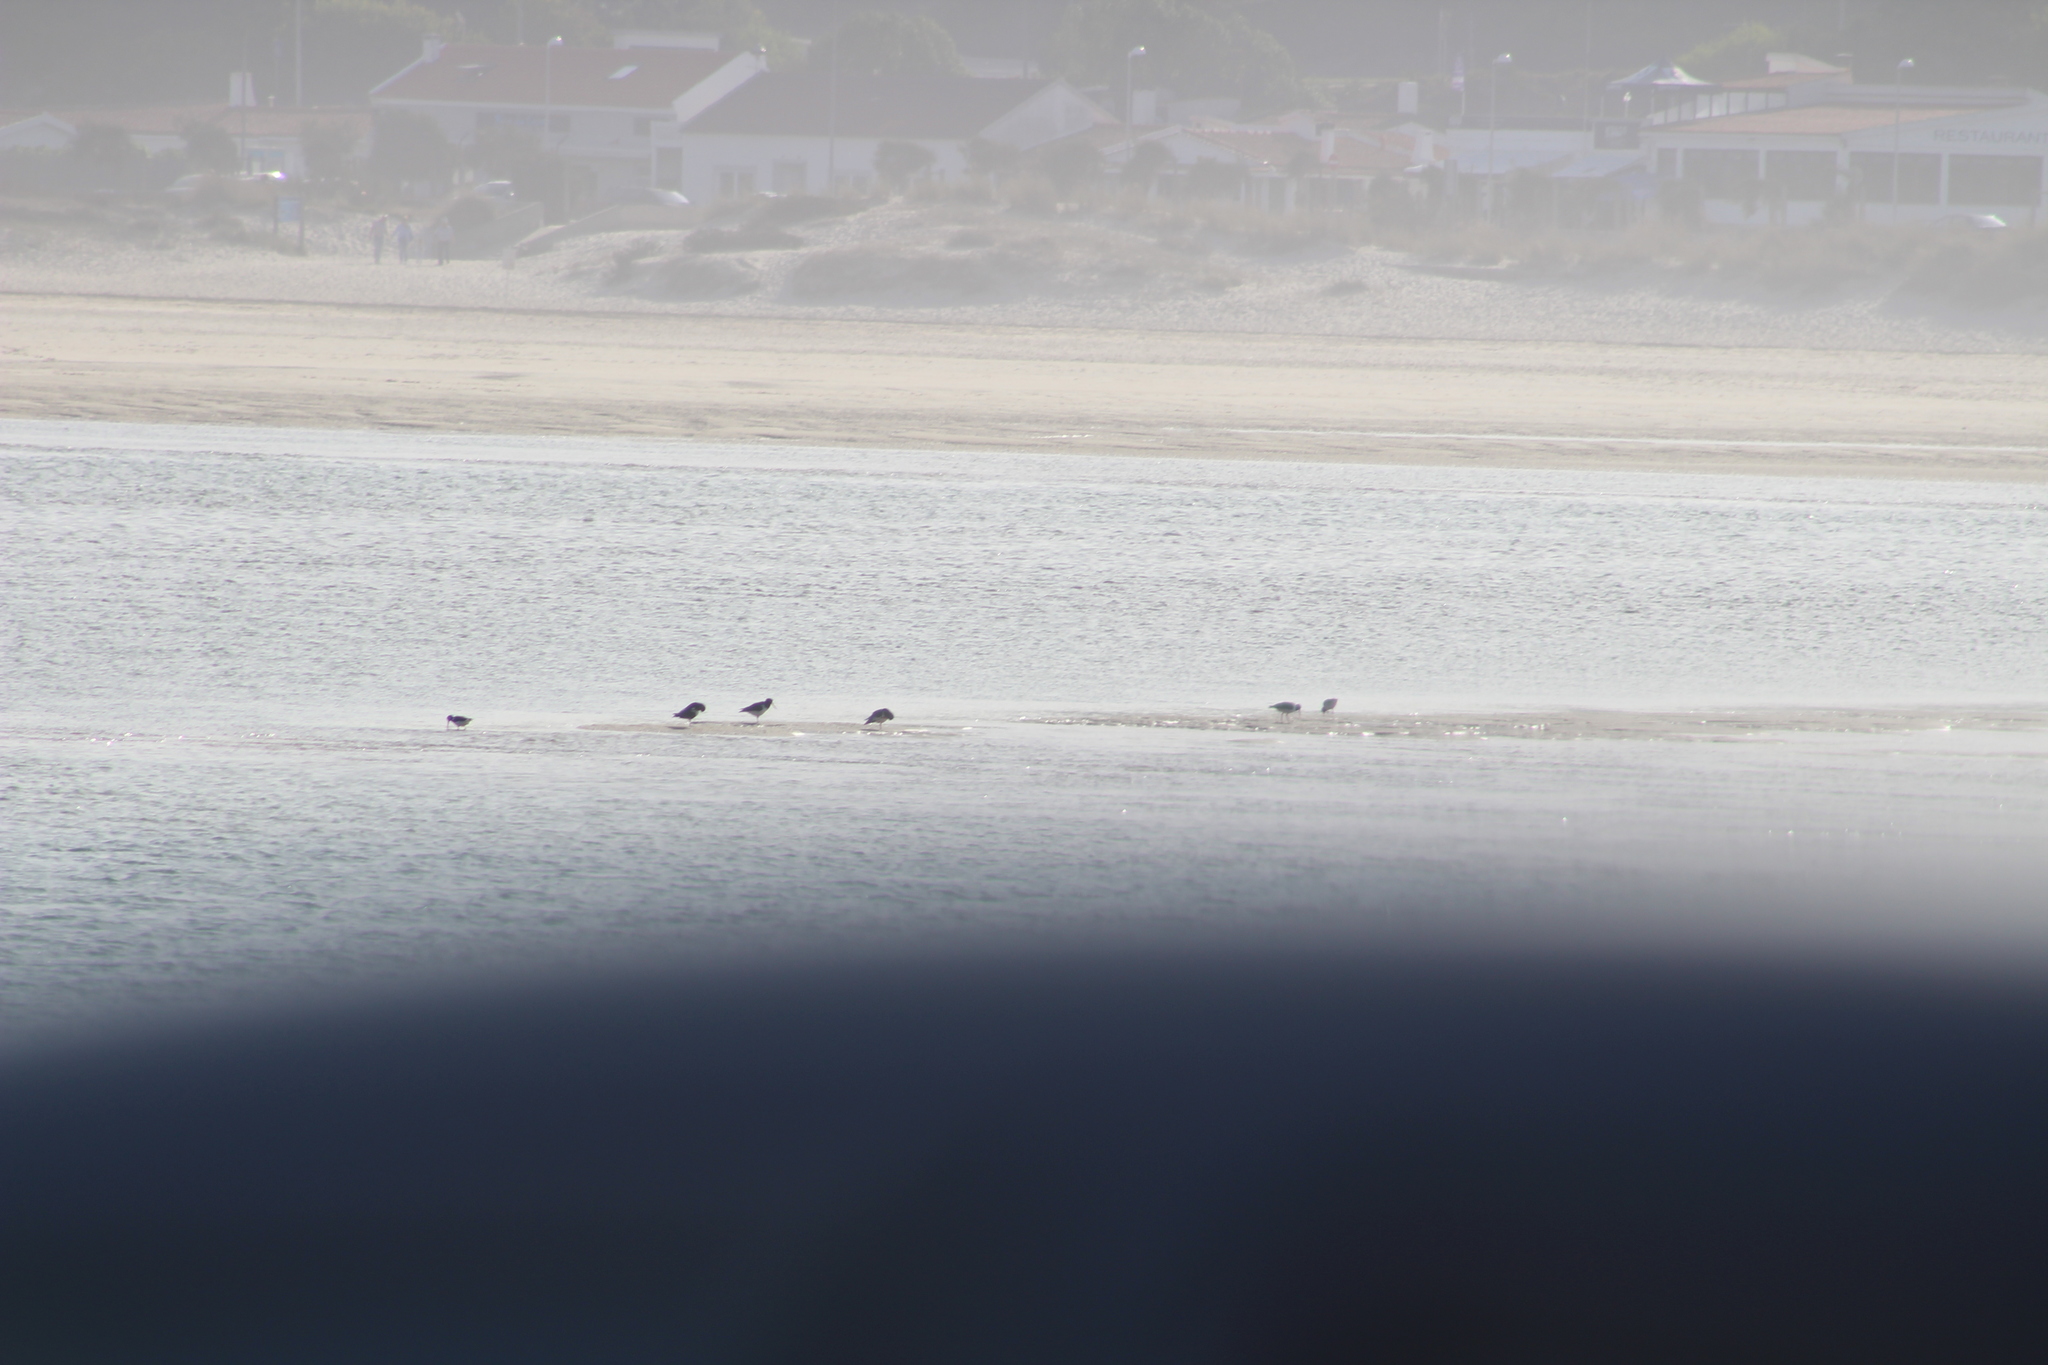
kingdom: Animalia
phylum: Chordata
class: Aves
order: Charadriiformes
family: Haematopodidae
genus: Haematopus
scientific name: Haematopus ostralegus
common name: Eurasian oystercatcher
